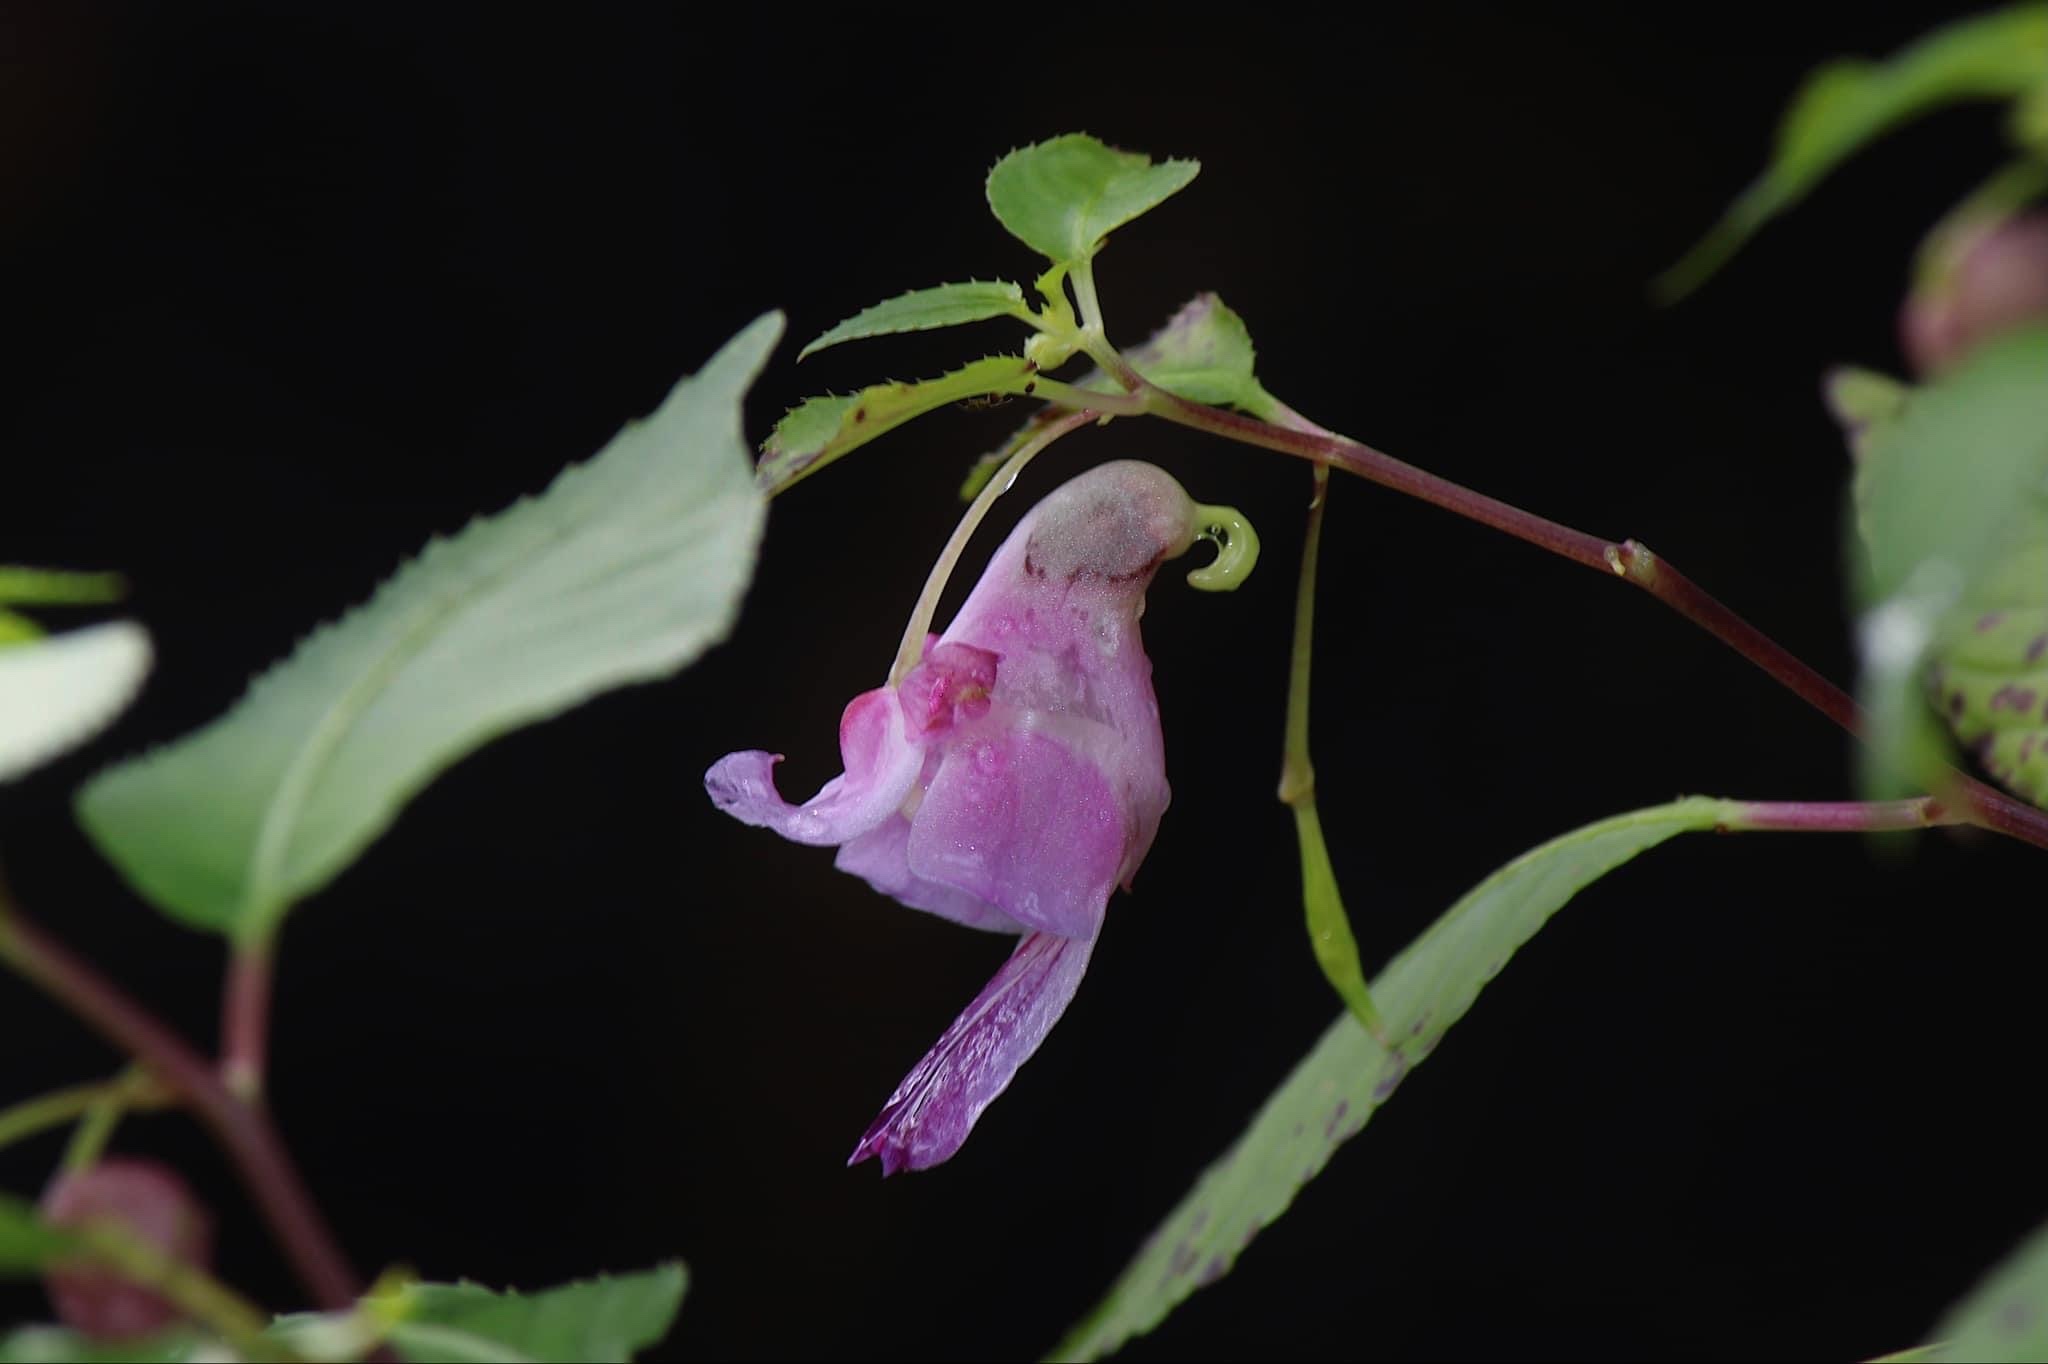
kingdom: Plantae
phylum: Tracheophyta
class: Magnoliopsida
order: Ericales
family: Balsaminaceae
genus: Impatiens
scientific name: Impatiens psittacina
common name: Parrot-flower
